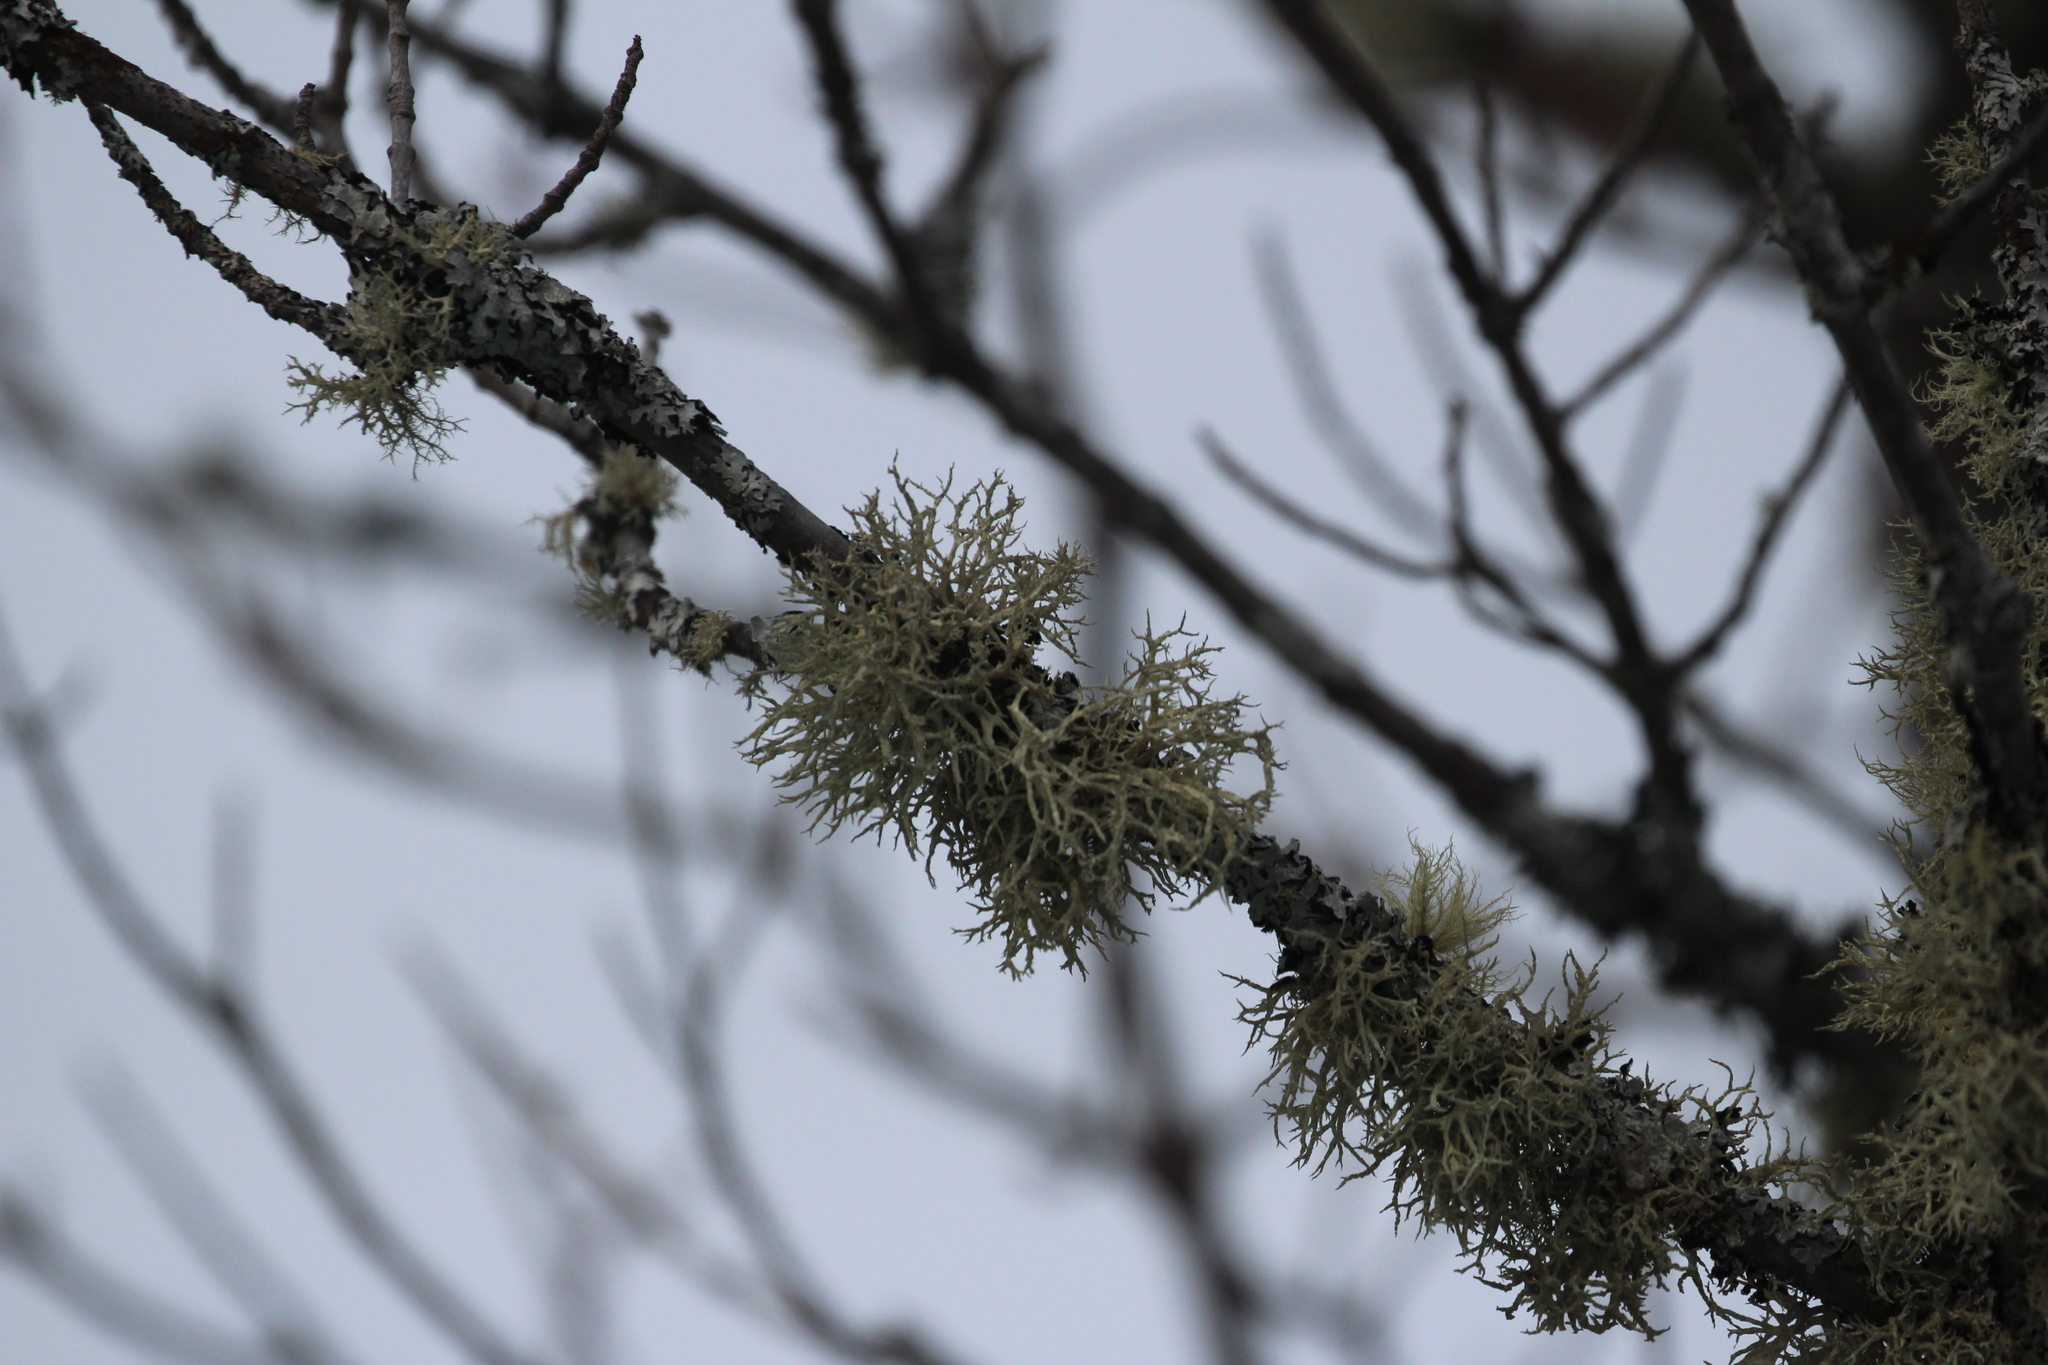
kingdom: Fungi
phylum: Ascomycota
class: Lecanoromycetes
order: Lecanorales
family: Parmeliaceae
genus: Evernia
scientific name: Evernia mesomorpha
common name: Boreal oak moss lichen
